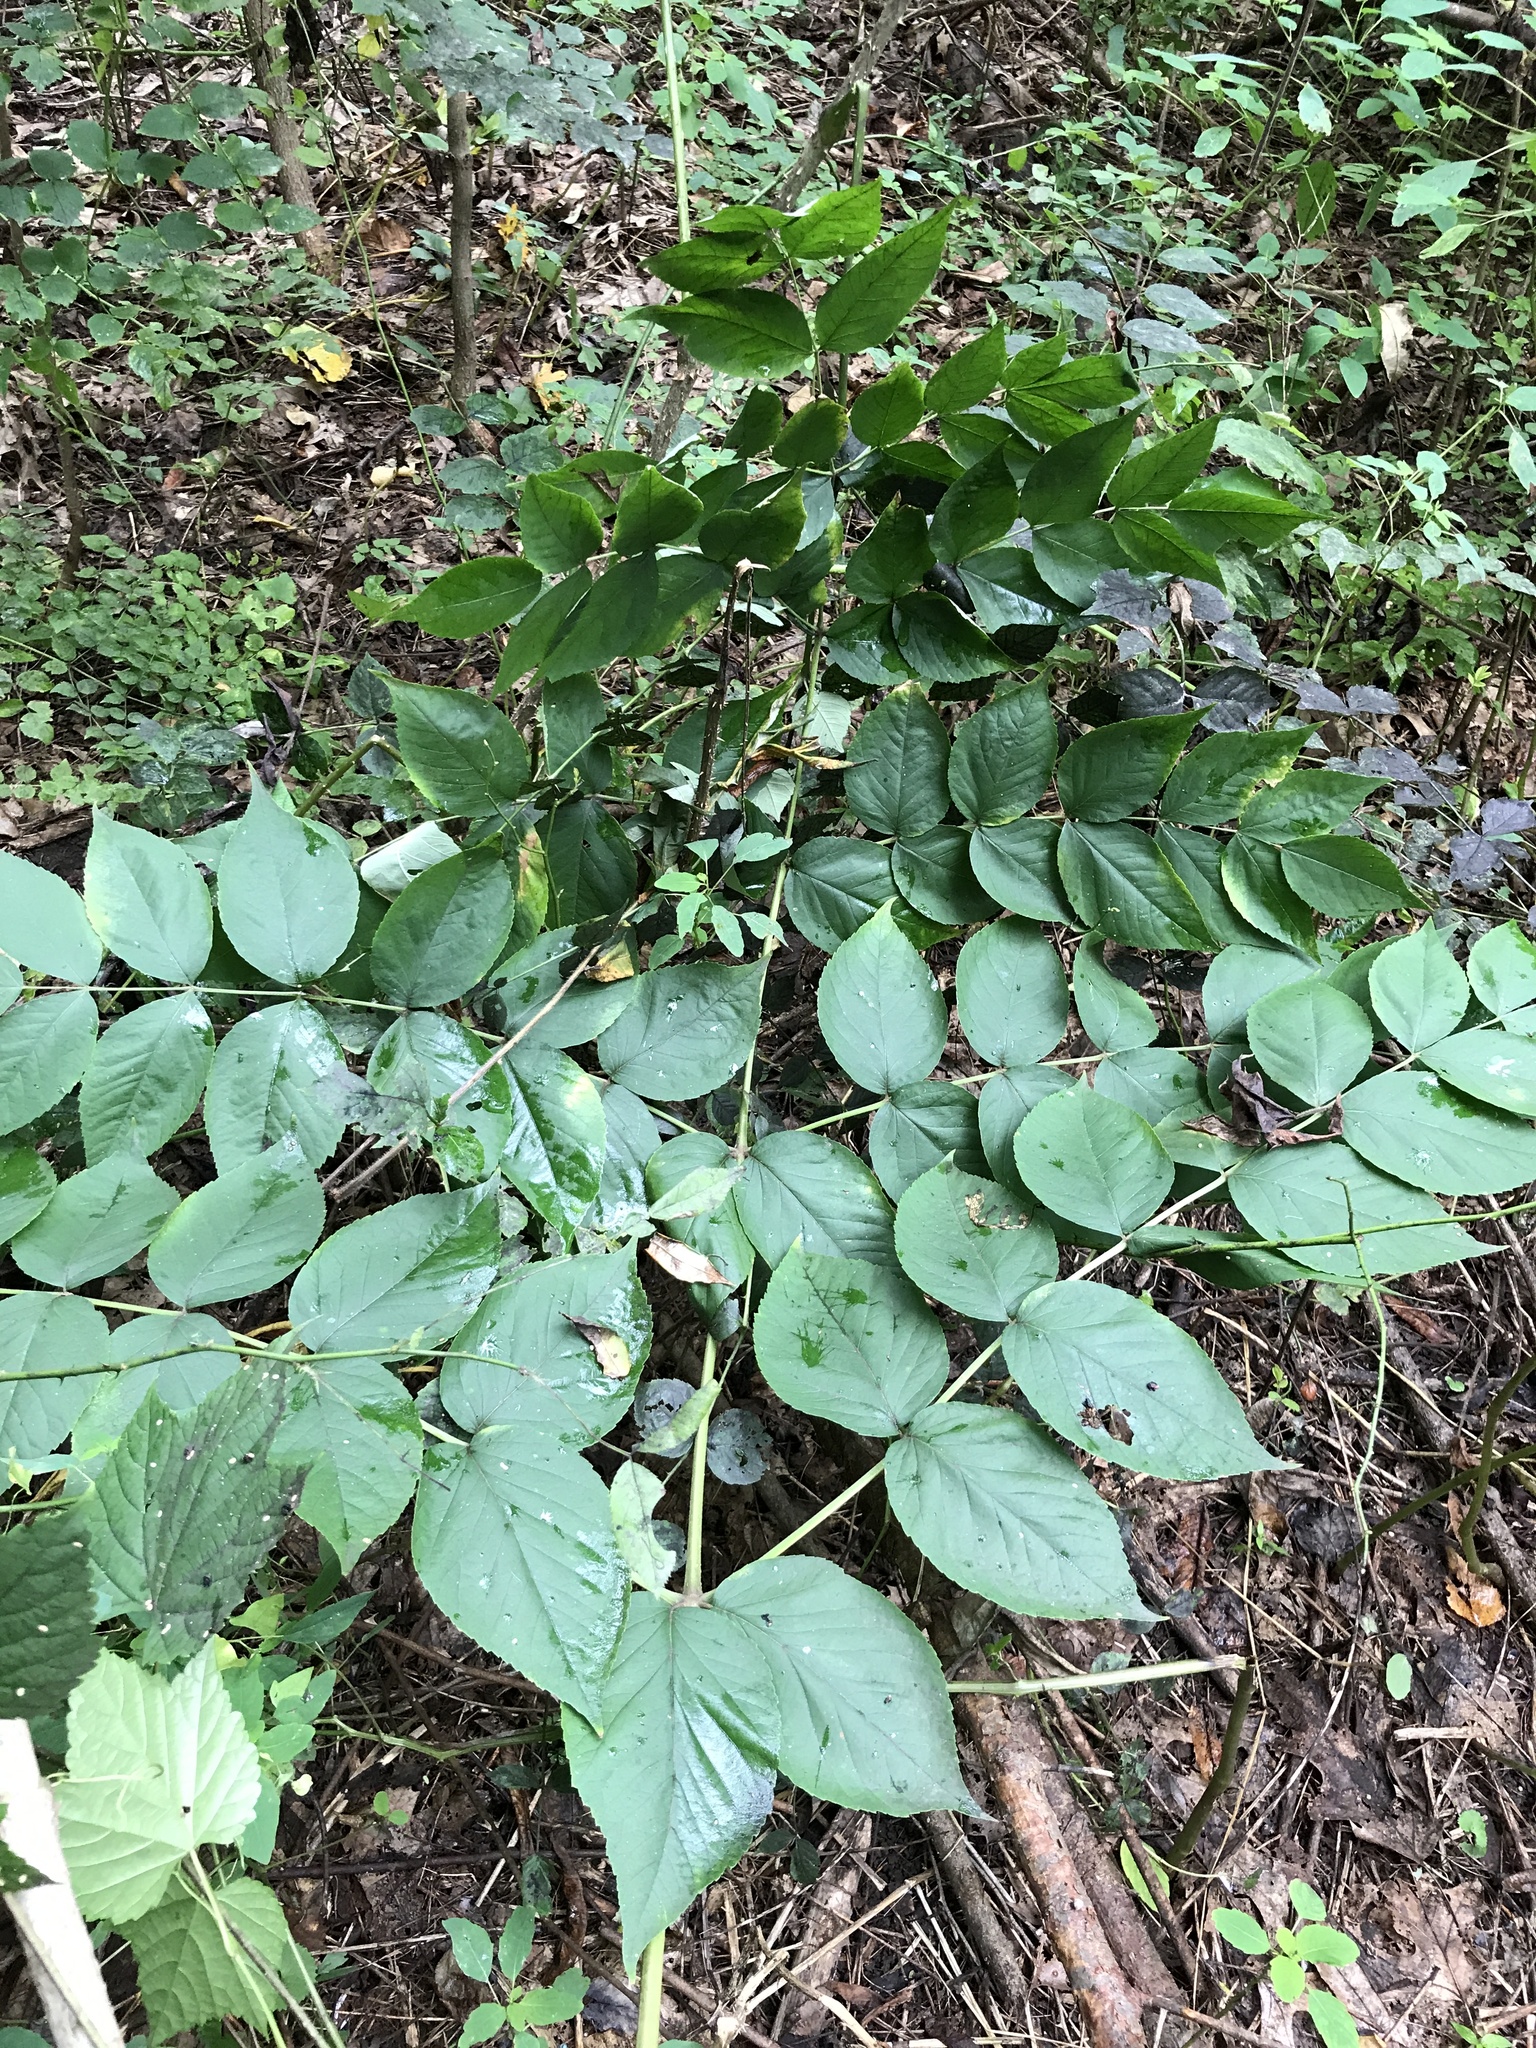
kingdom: Plantae
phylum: Tracheophyta
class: Magnoliopsida
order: Apiales
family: Araliaceae
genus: Aralia
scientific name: Aralia elata
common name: Japanese angelica-tree
